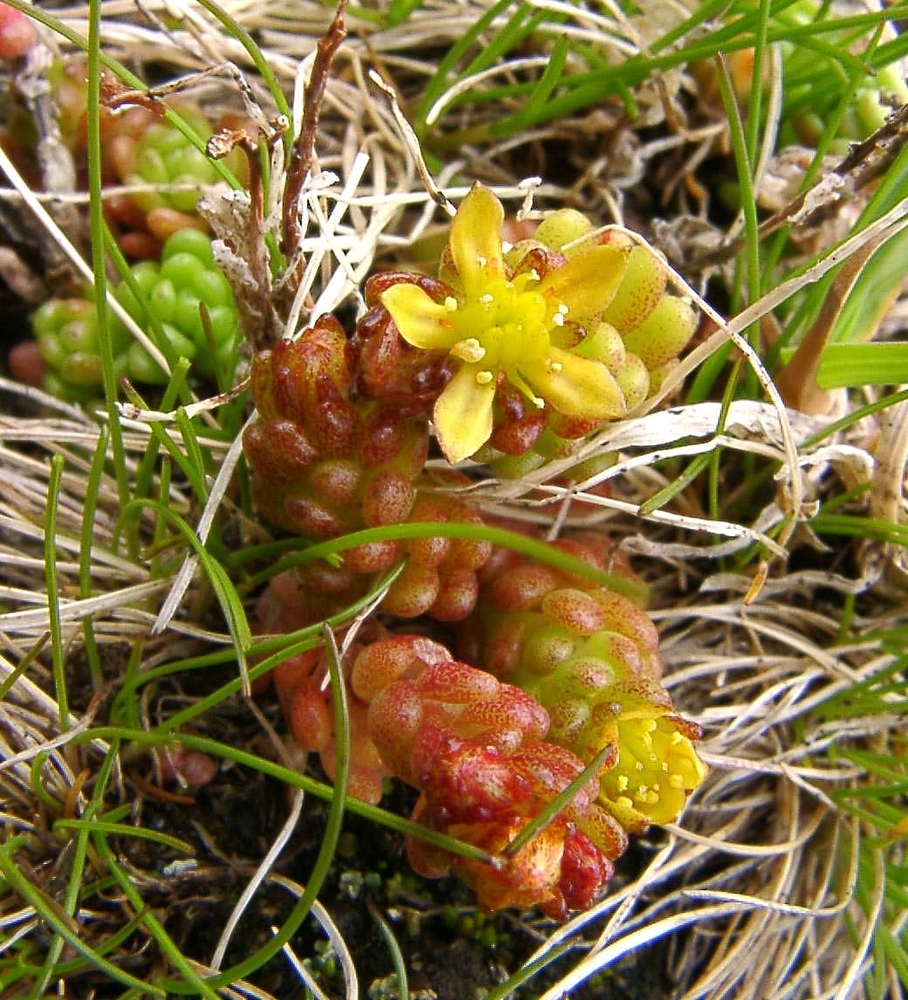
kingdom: Plantae
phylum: Tracheophyta
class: Magnoliopsida
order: Saxifragales
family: Crassulaceae
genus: Sedum
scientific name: Sedum alpestre
